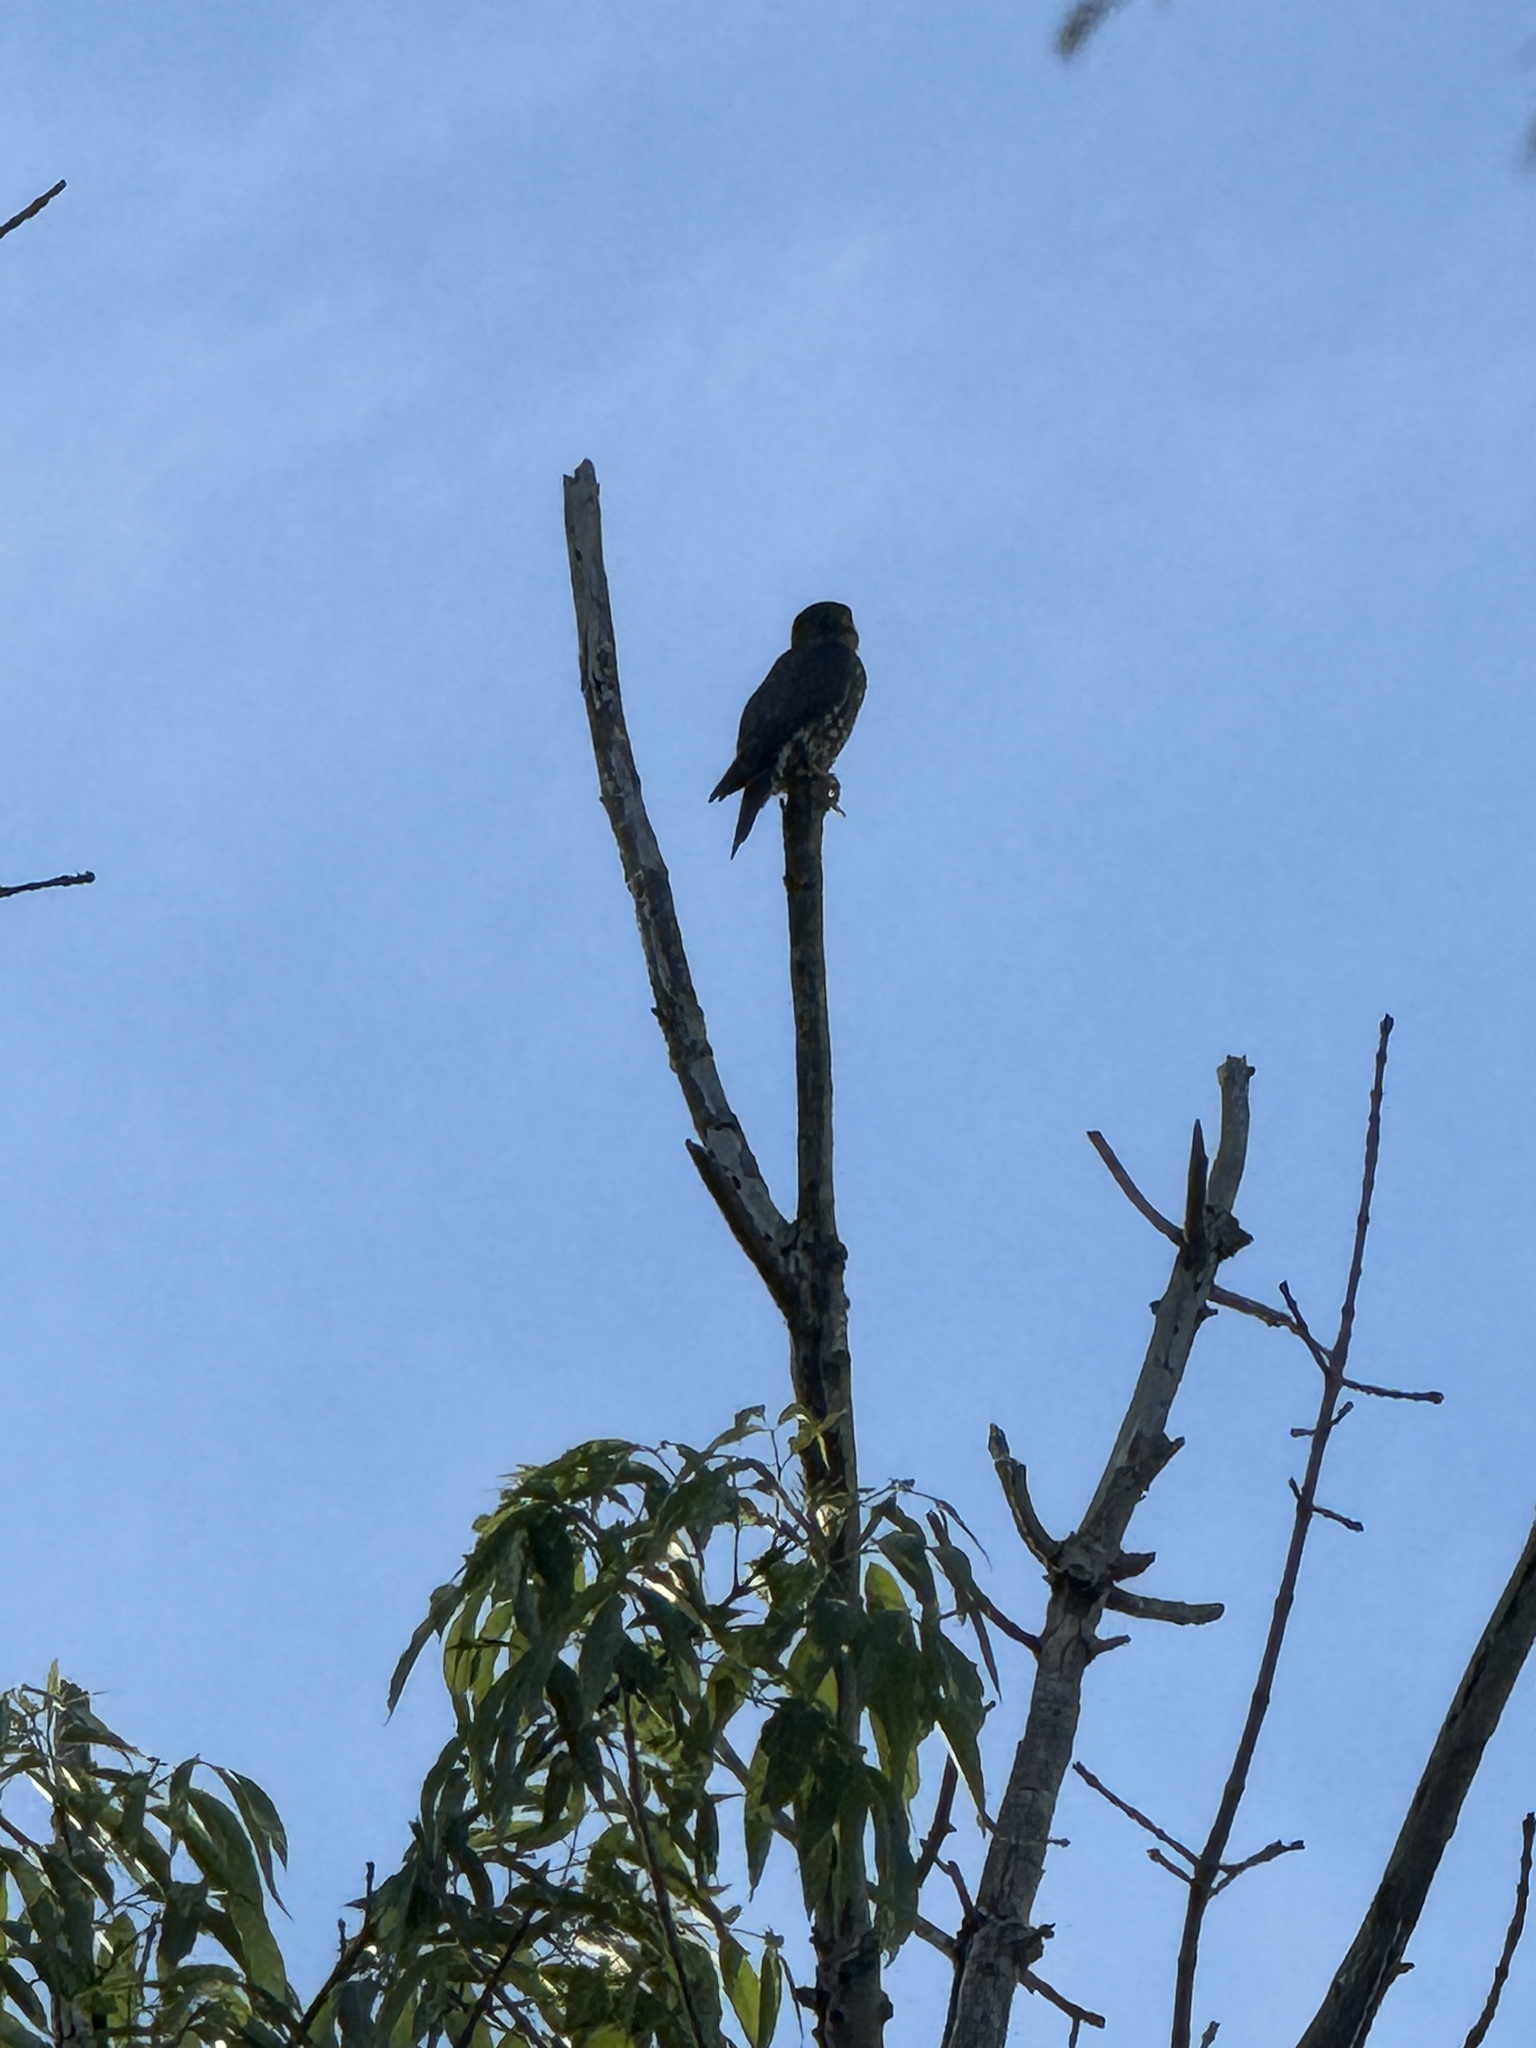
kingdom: Animalia
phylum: Chordata
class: Aves
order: Falconiformes
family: Falconidae
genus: Falco
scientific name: Falco columbarius
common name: Merlin
